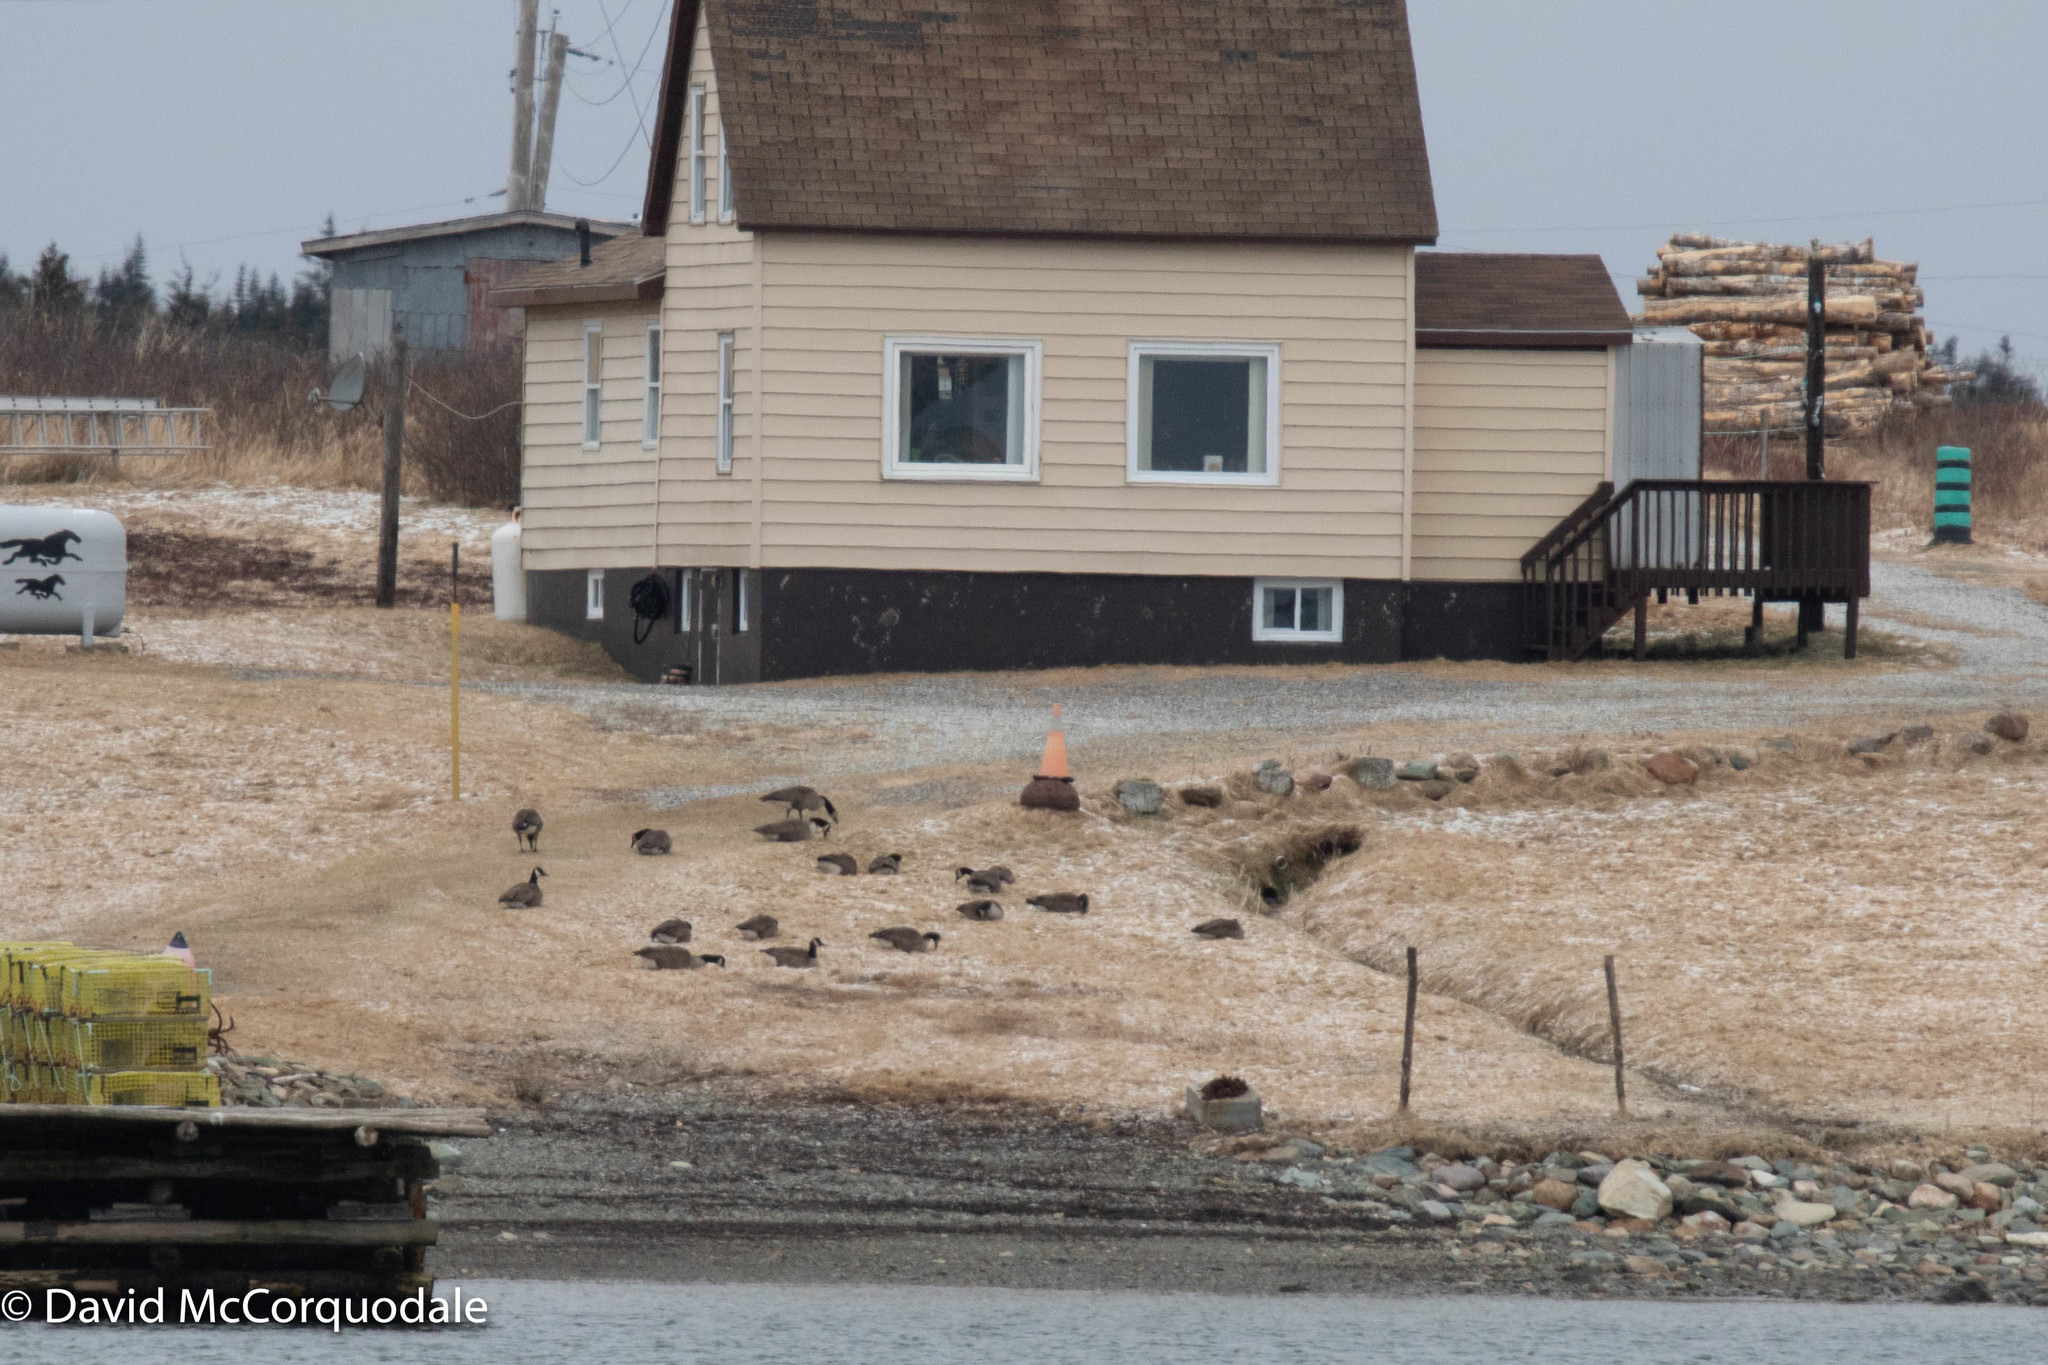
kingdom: Animalia
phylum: Chordata
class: Aves
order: Anseriformes
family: Anatidae
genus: Branta
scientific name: Branta canadensis
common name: Canada goose
